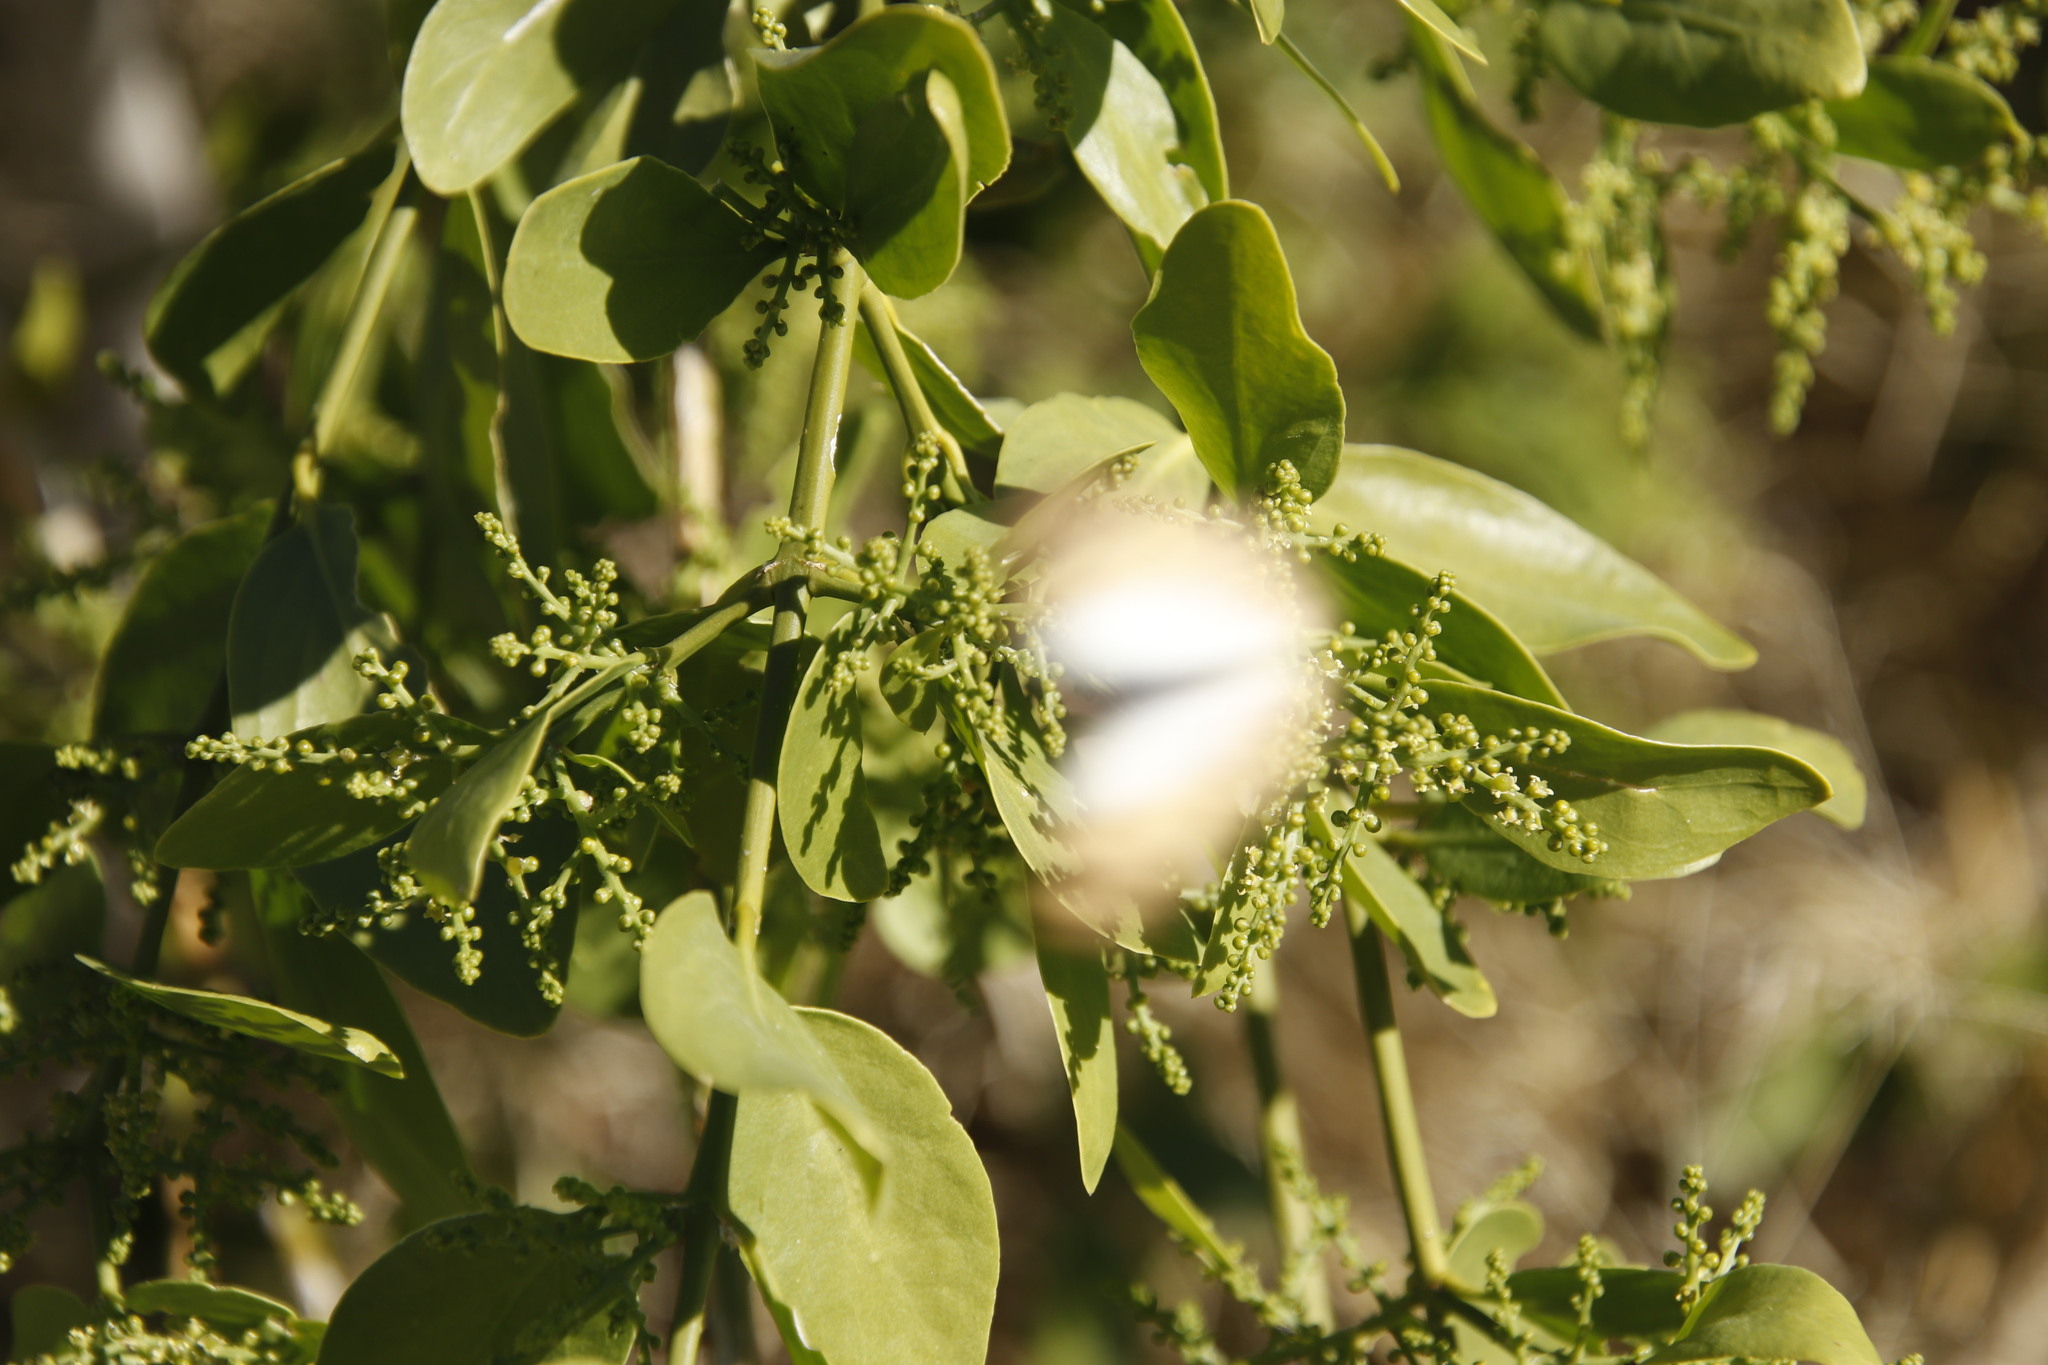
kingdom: Plantae
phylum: Tracheophyta
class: Magnoliopsida
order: Brassicales
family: Salvadoraceae
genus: Salvadora
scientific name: Salvadora persica
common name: Toothbrushtree
